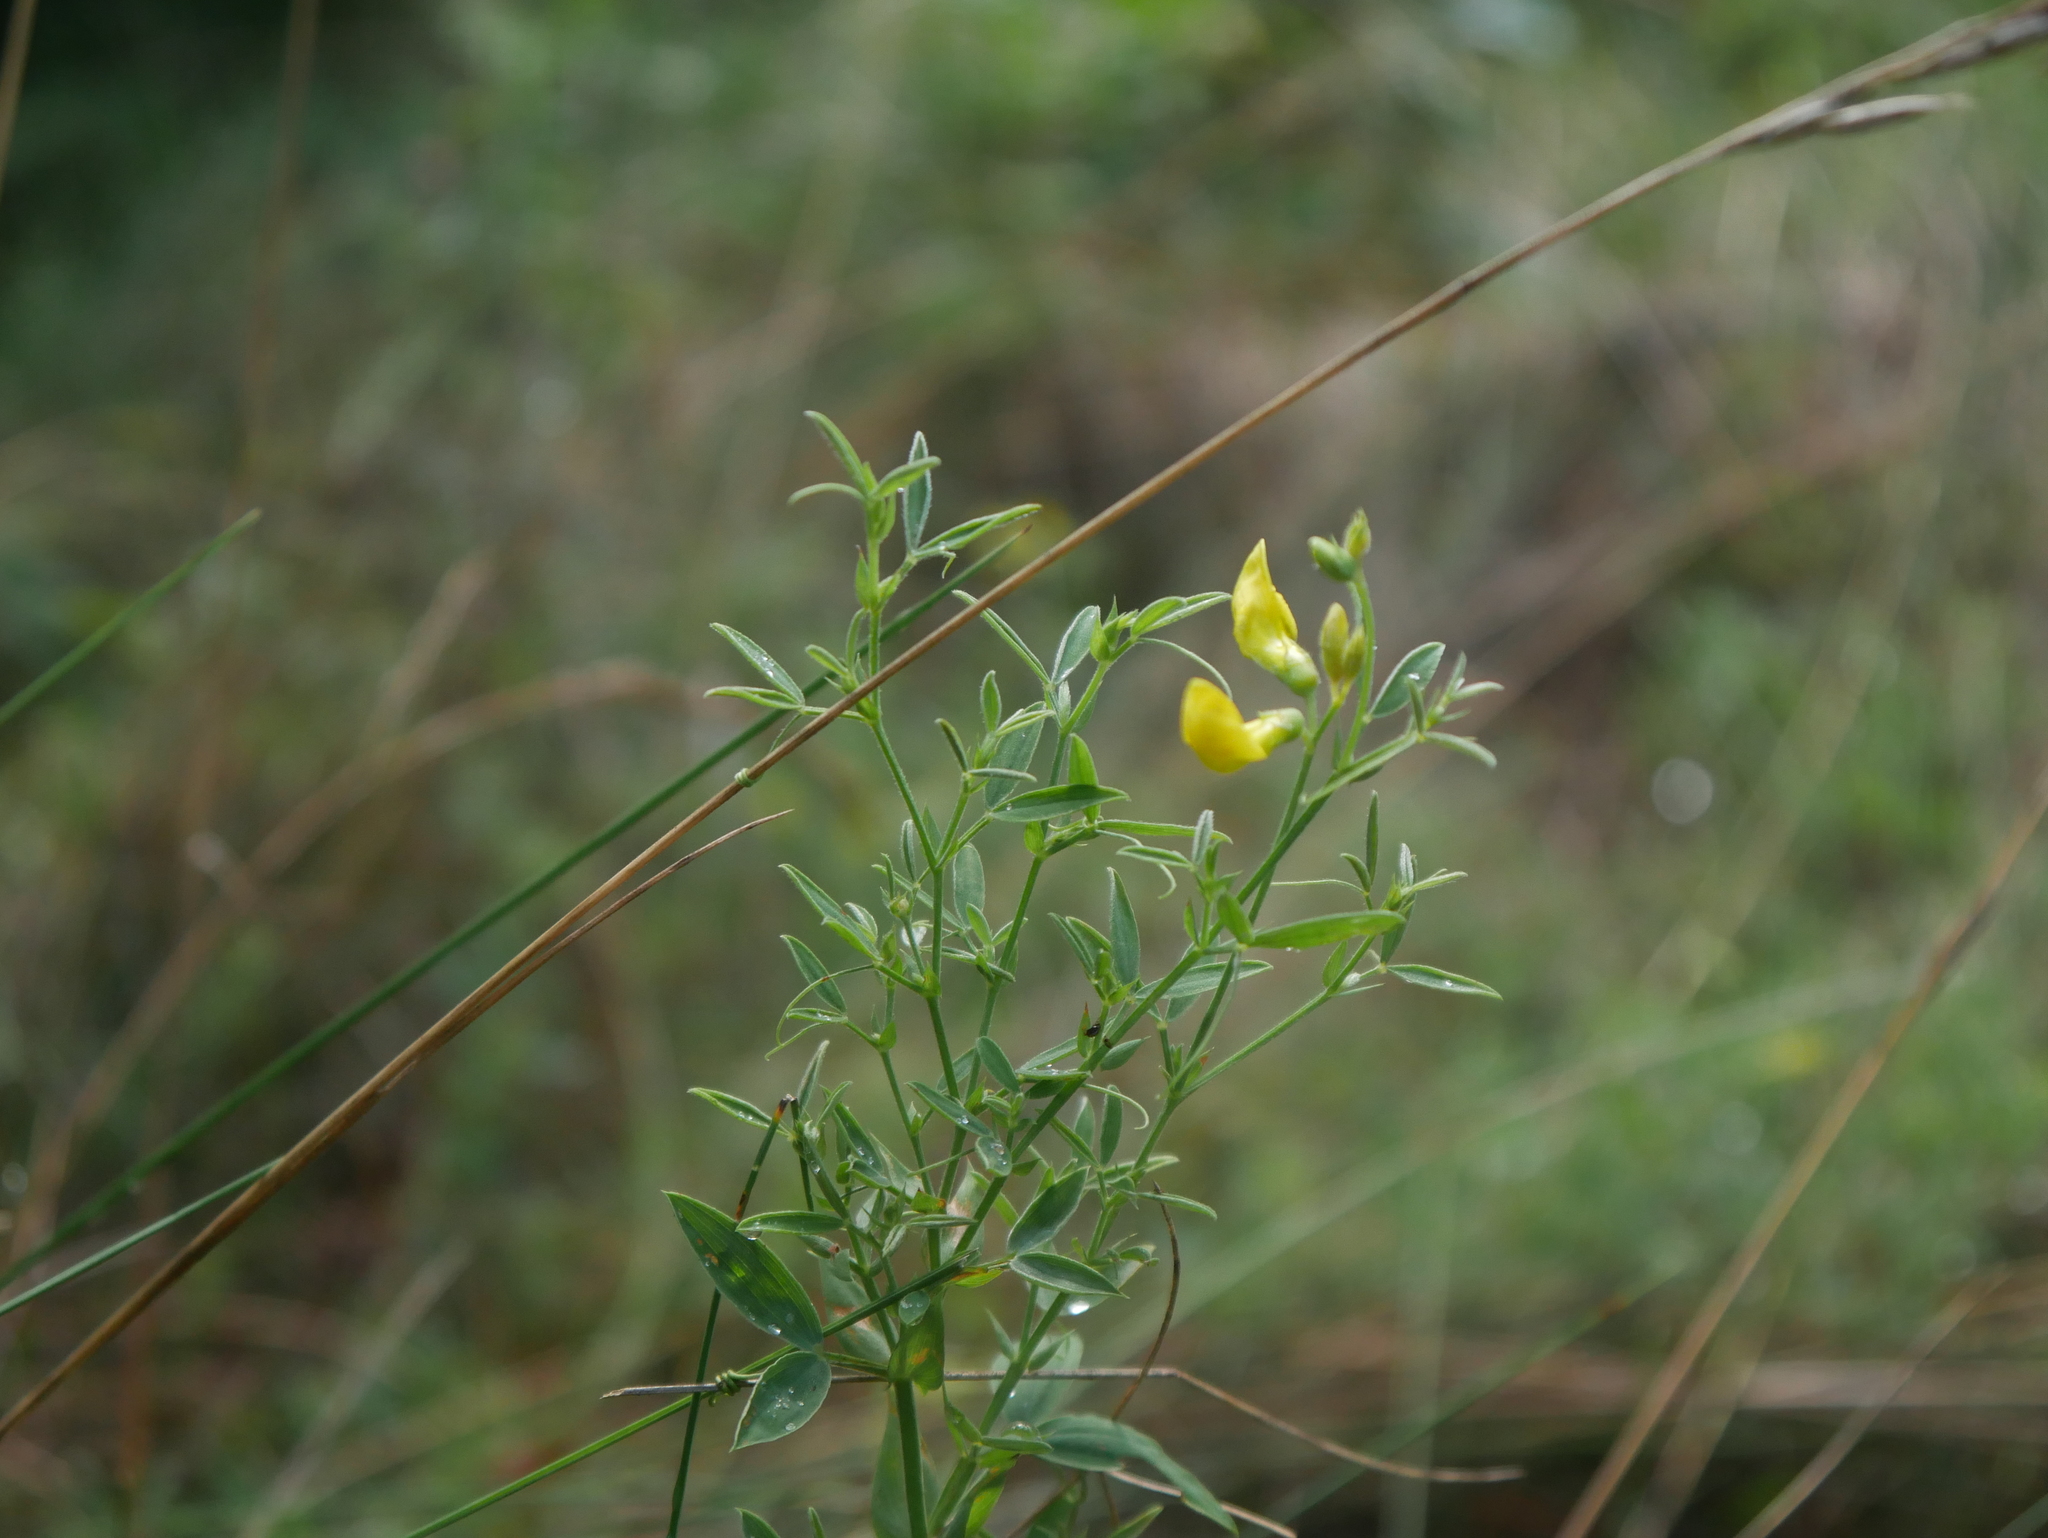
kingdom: Plantae
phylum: Tracheophyta
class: Magnoliopsida
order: Fabales
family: Fabaceae
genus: Lathyrus
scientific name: Lathyrus pratensis
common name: Meadow vetchling
